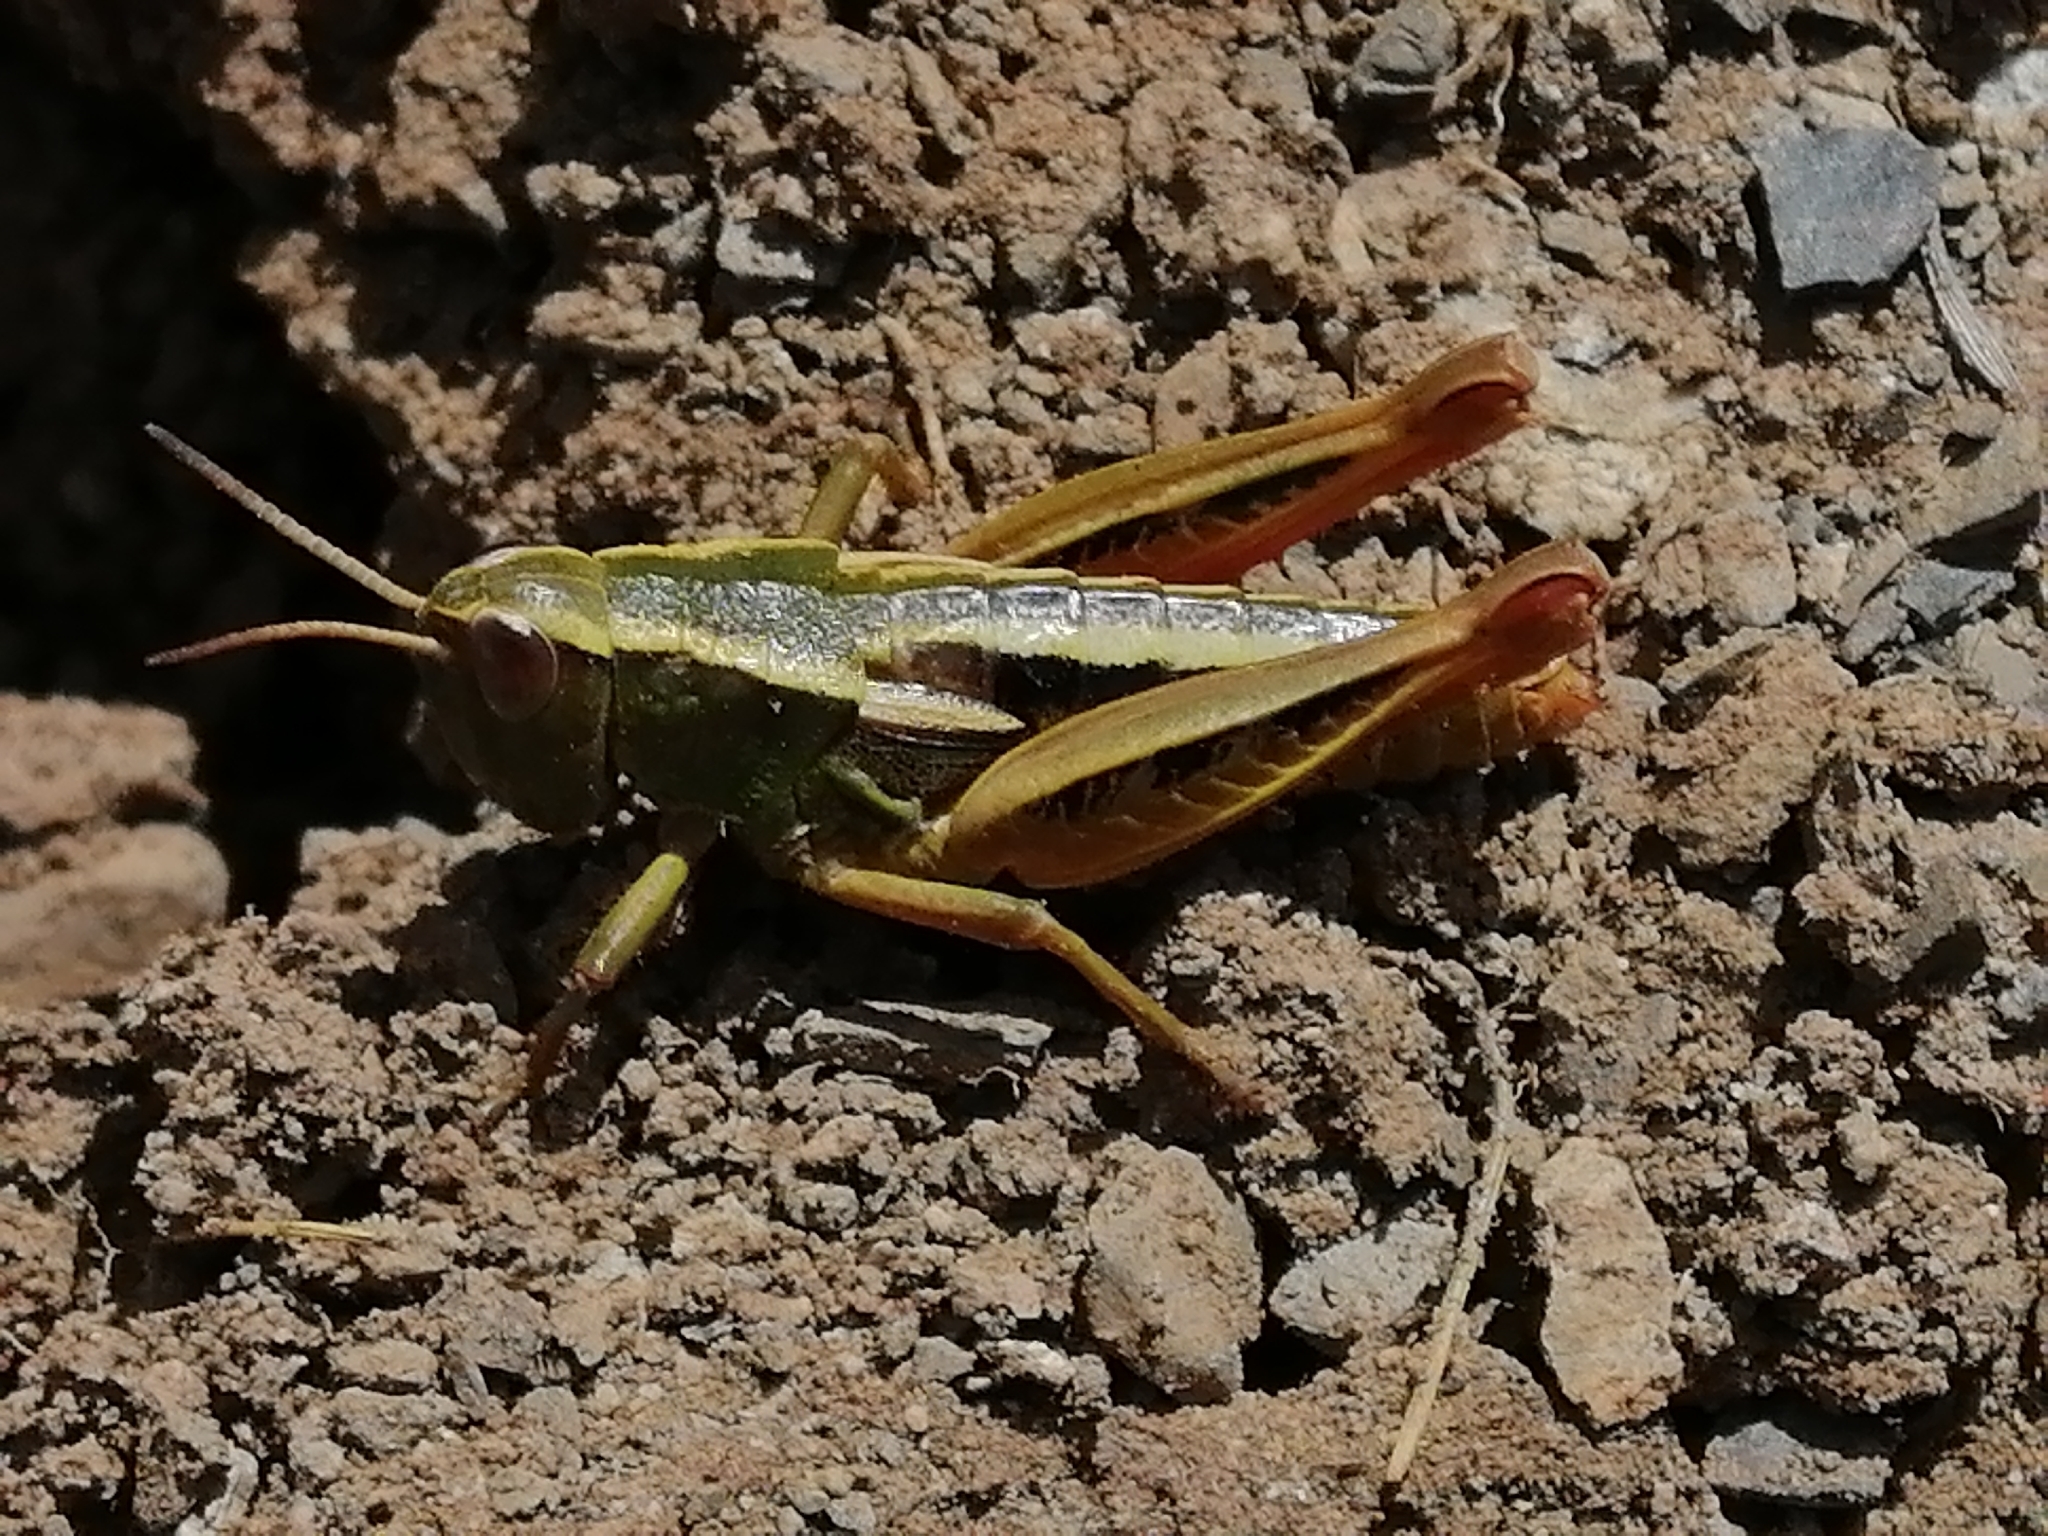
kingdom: Animalia
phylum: Arthropoda
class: Insecta
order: Orthoptera
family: Acrididae
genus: Sigaus
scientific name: Sigaus
